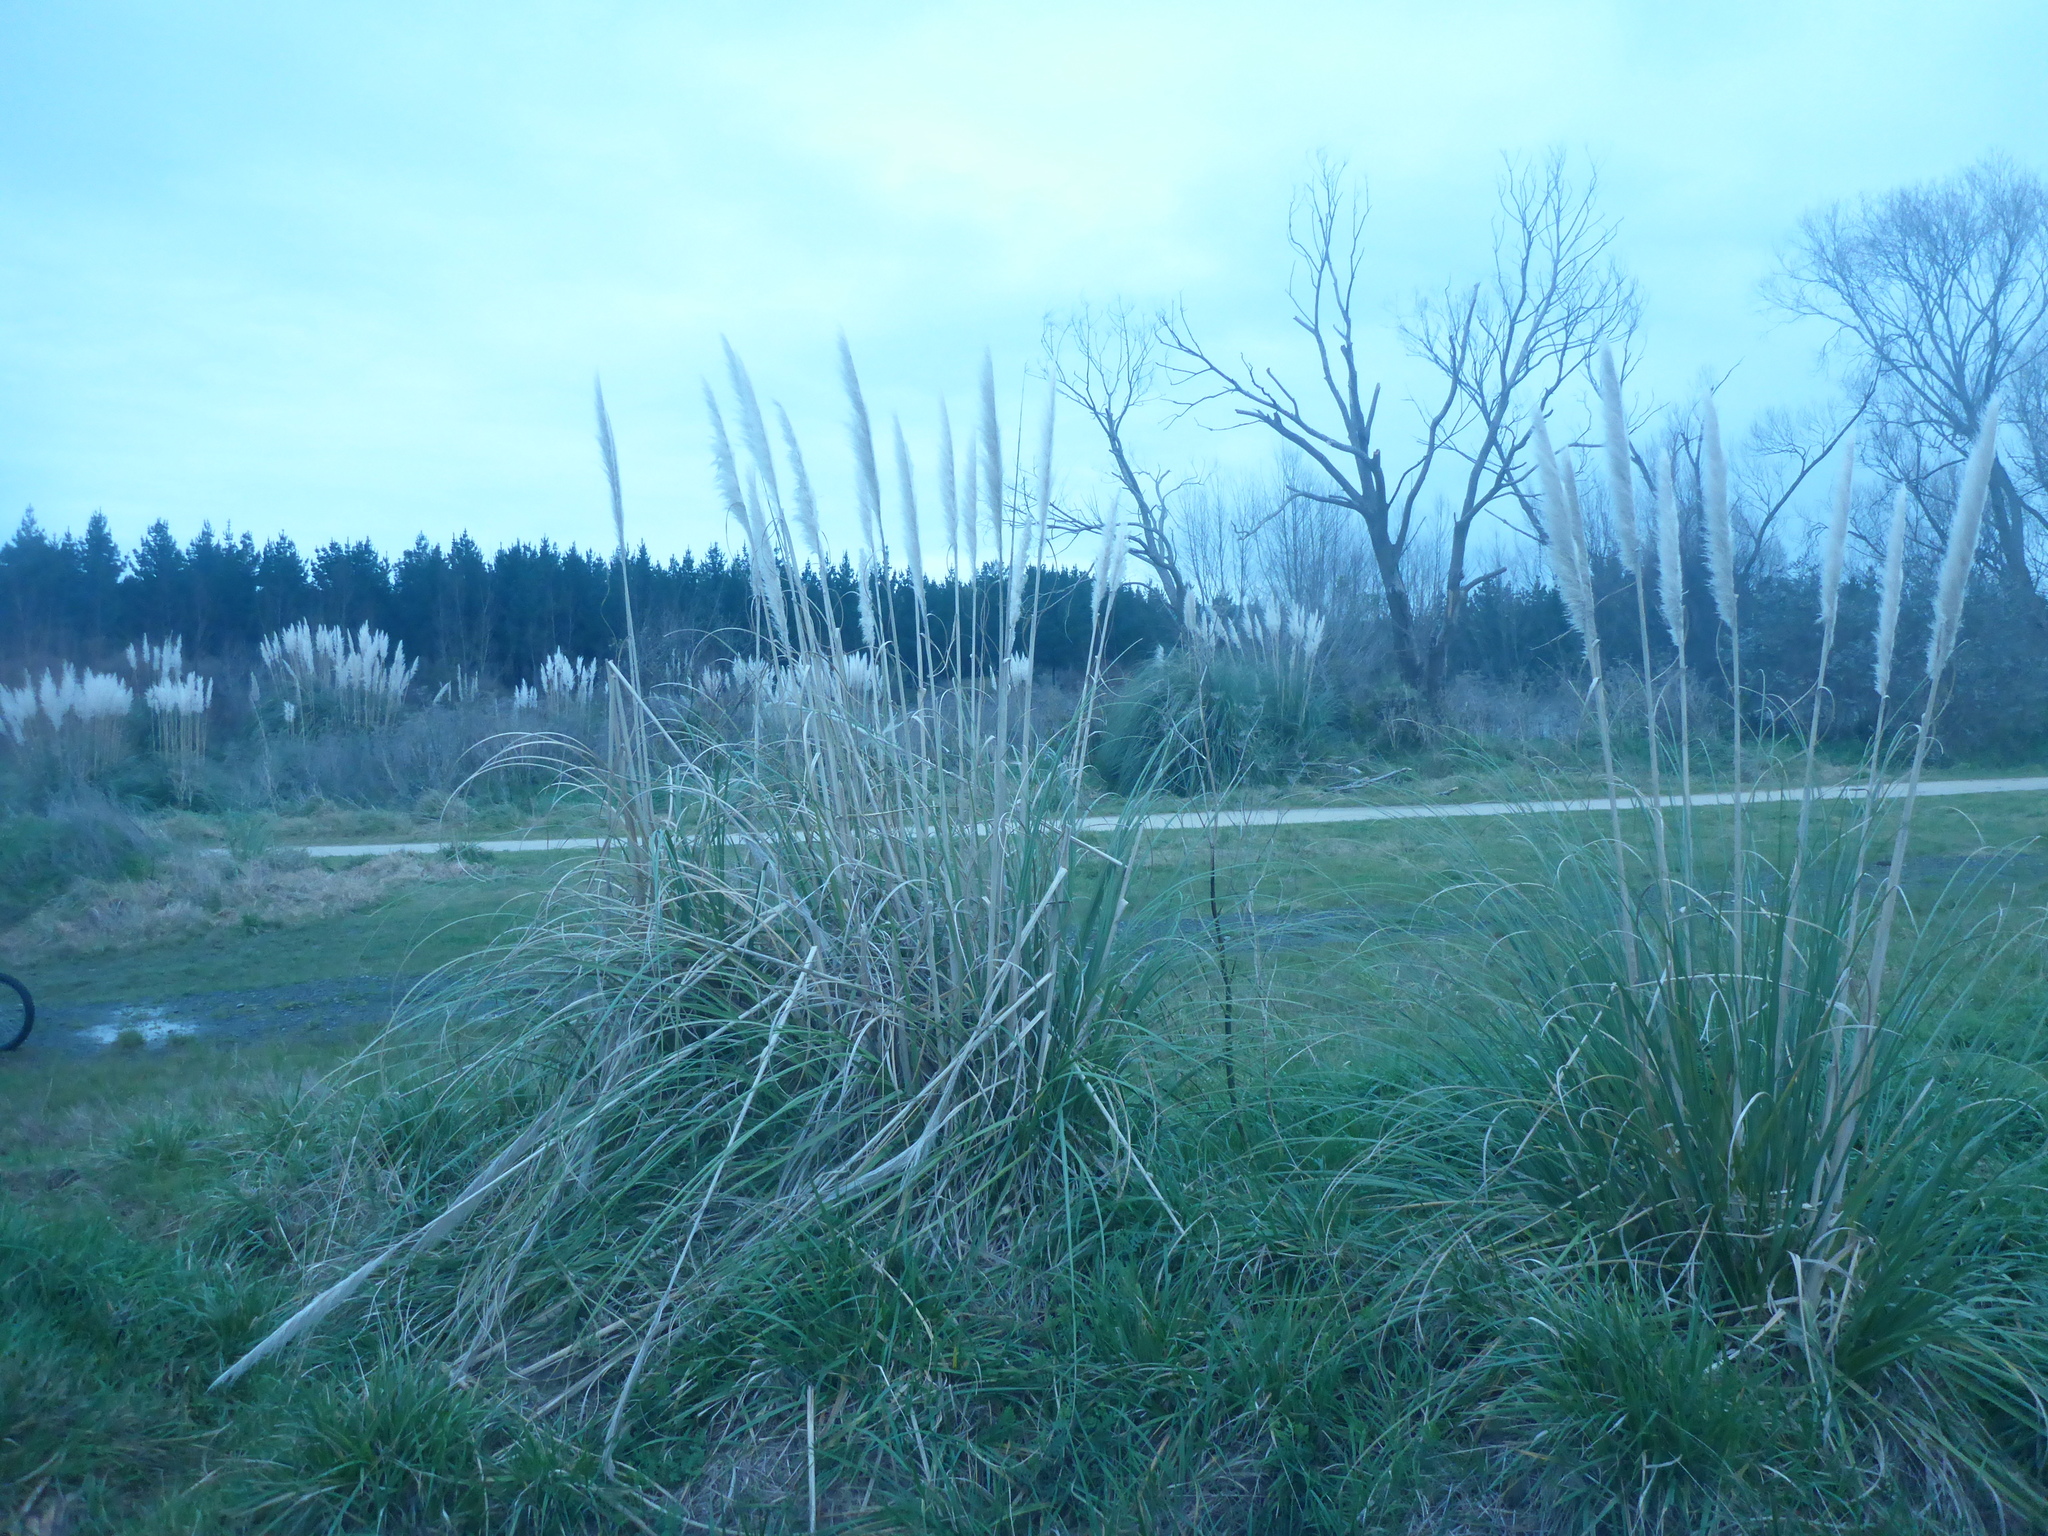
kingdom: Plantae
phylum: Tracheophyta
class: Liliopsida
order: Poales
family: Poaceae
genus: Cortaderia
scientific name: Cortaderia selloana
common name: Uruguayan pampas grass
